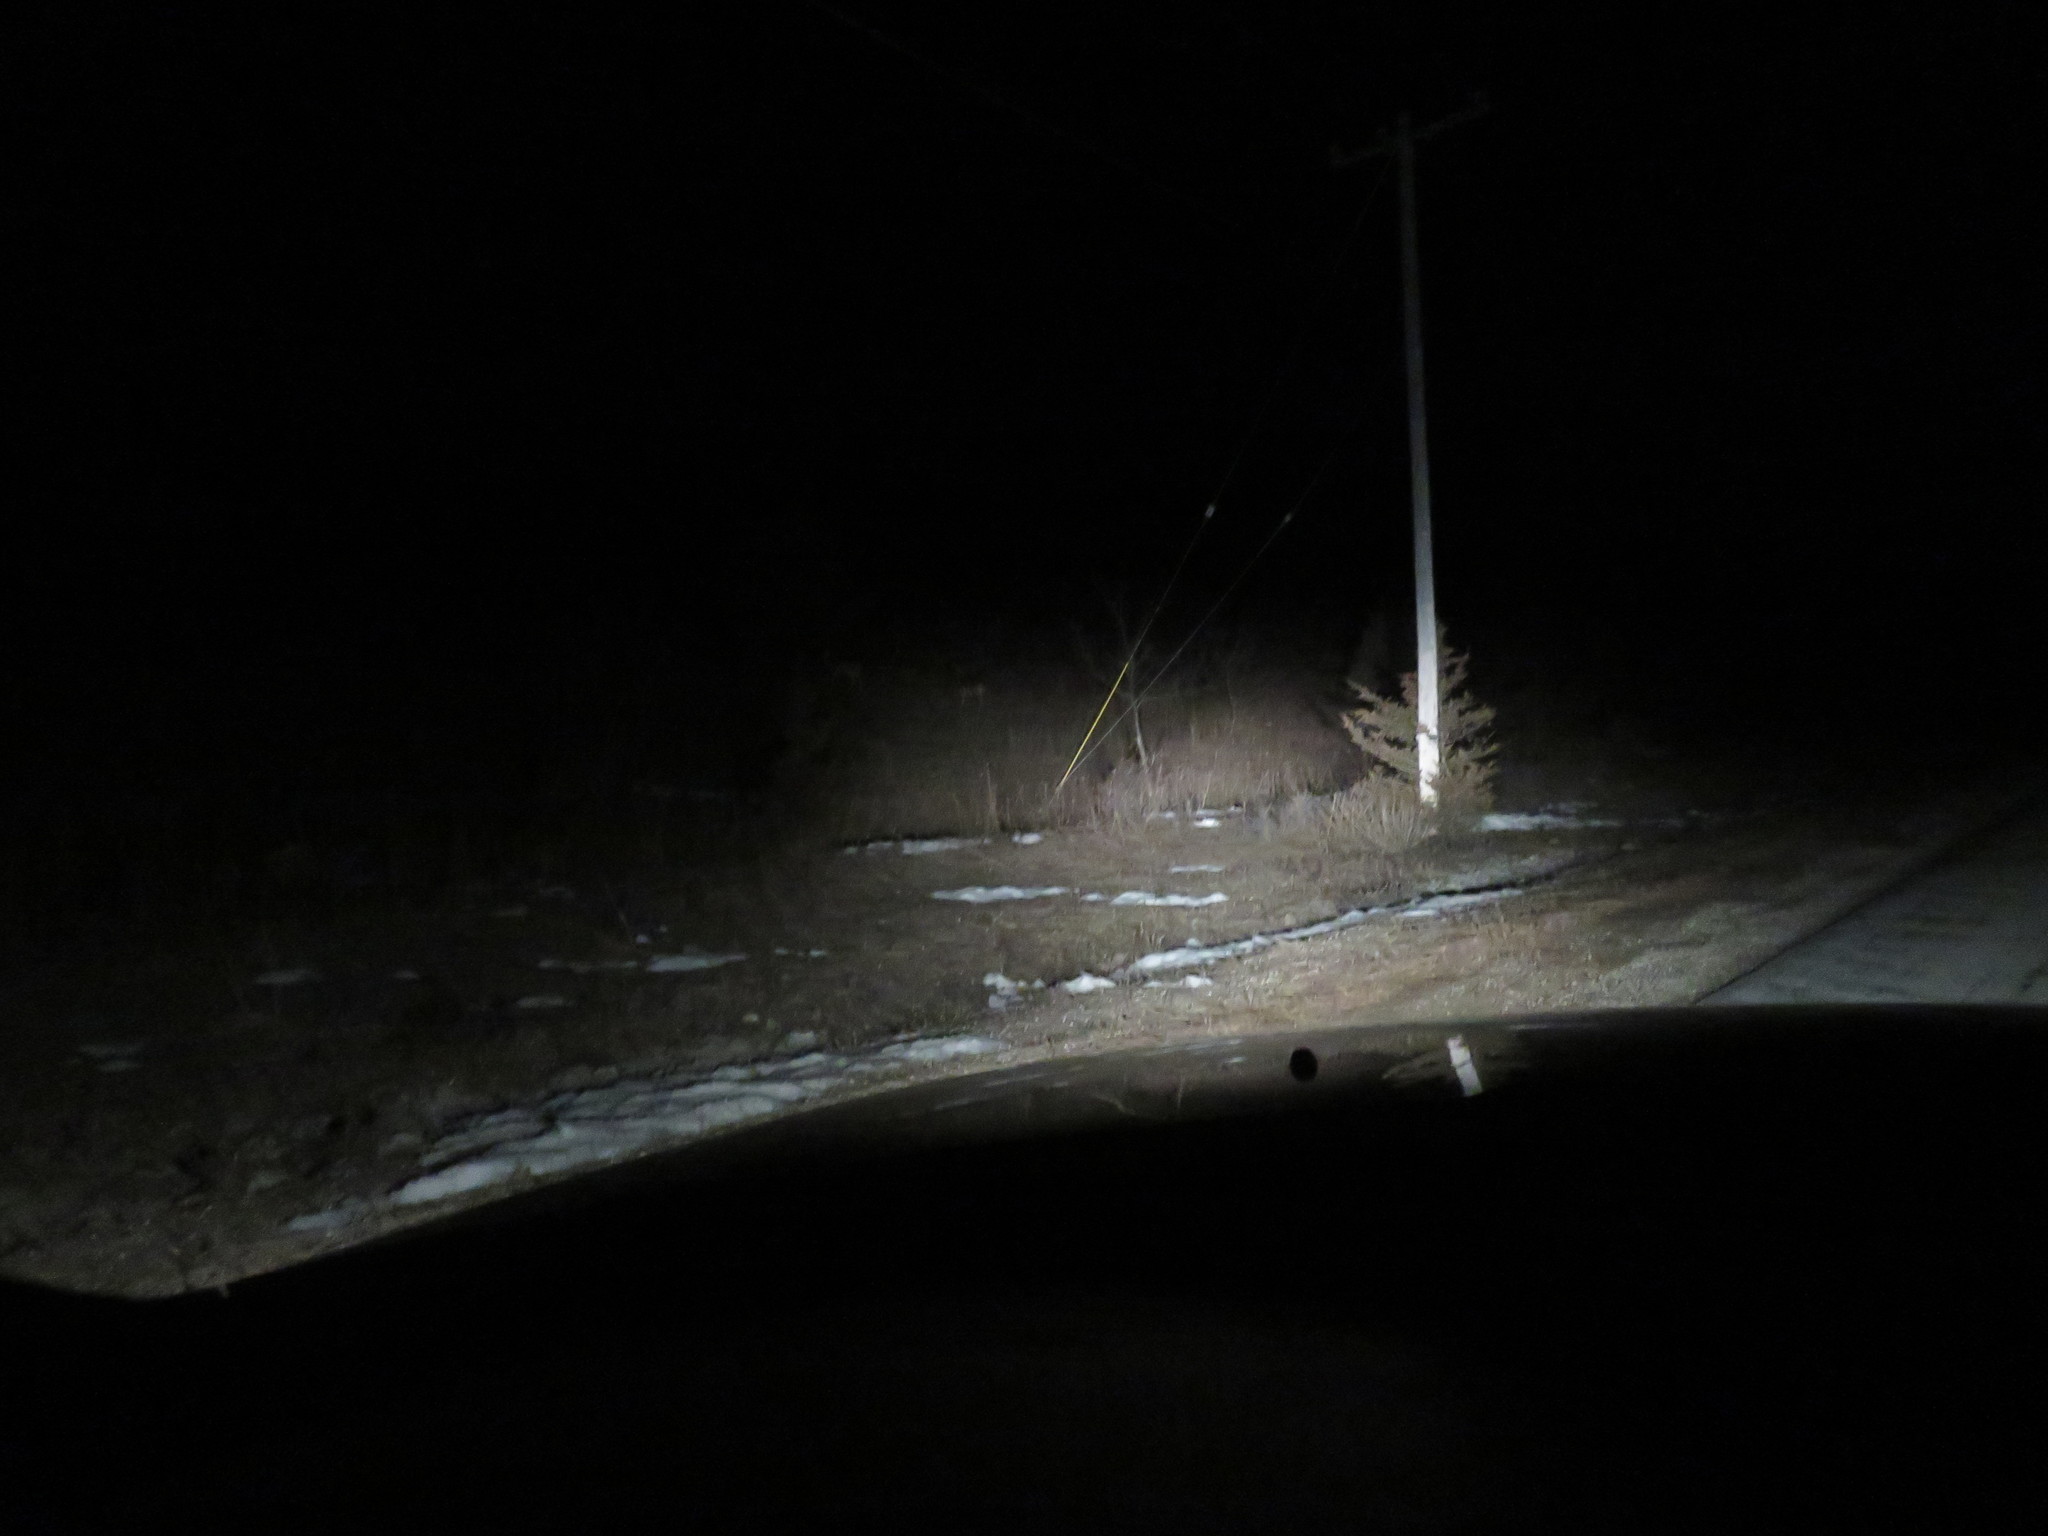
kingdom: Animalia
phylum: Chordata
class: Mammalia
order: Artiodactyla
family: Cervidae
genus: Odocoileus
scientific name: Odocoileus virginianus
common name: White-tailed deer
